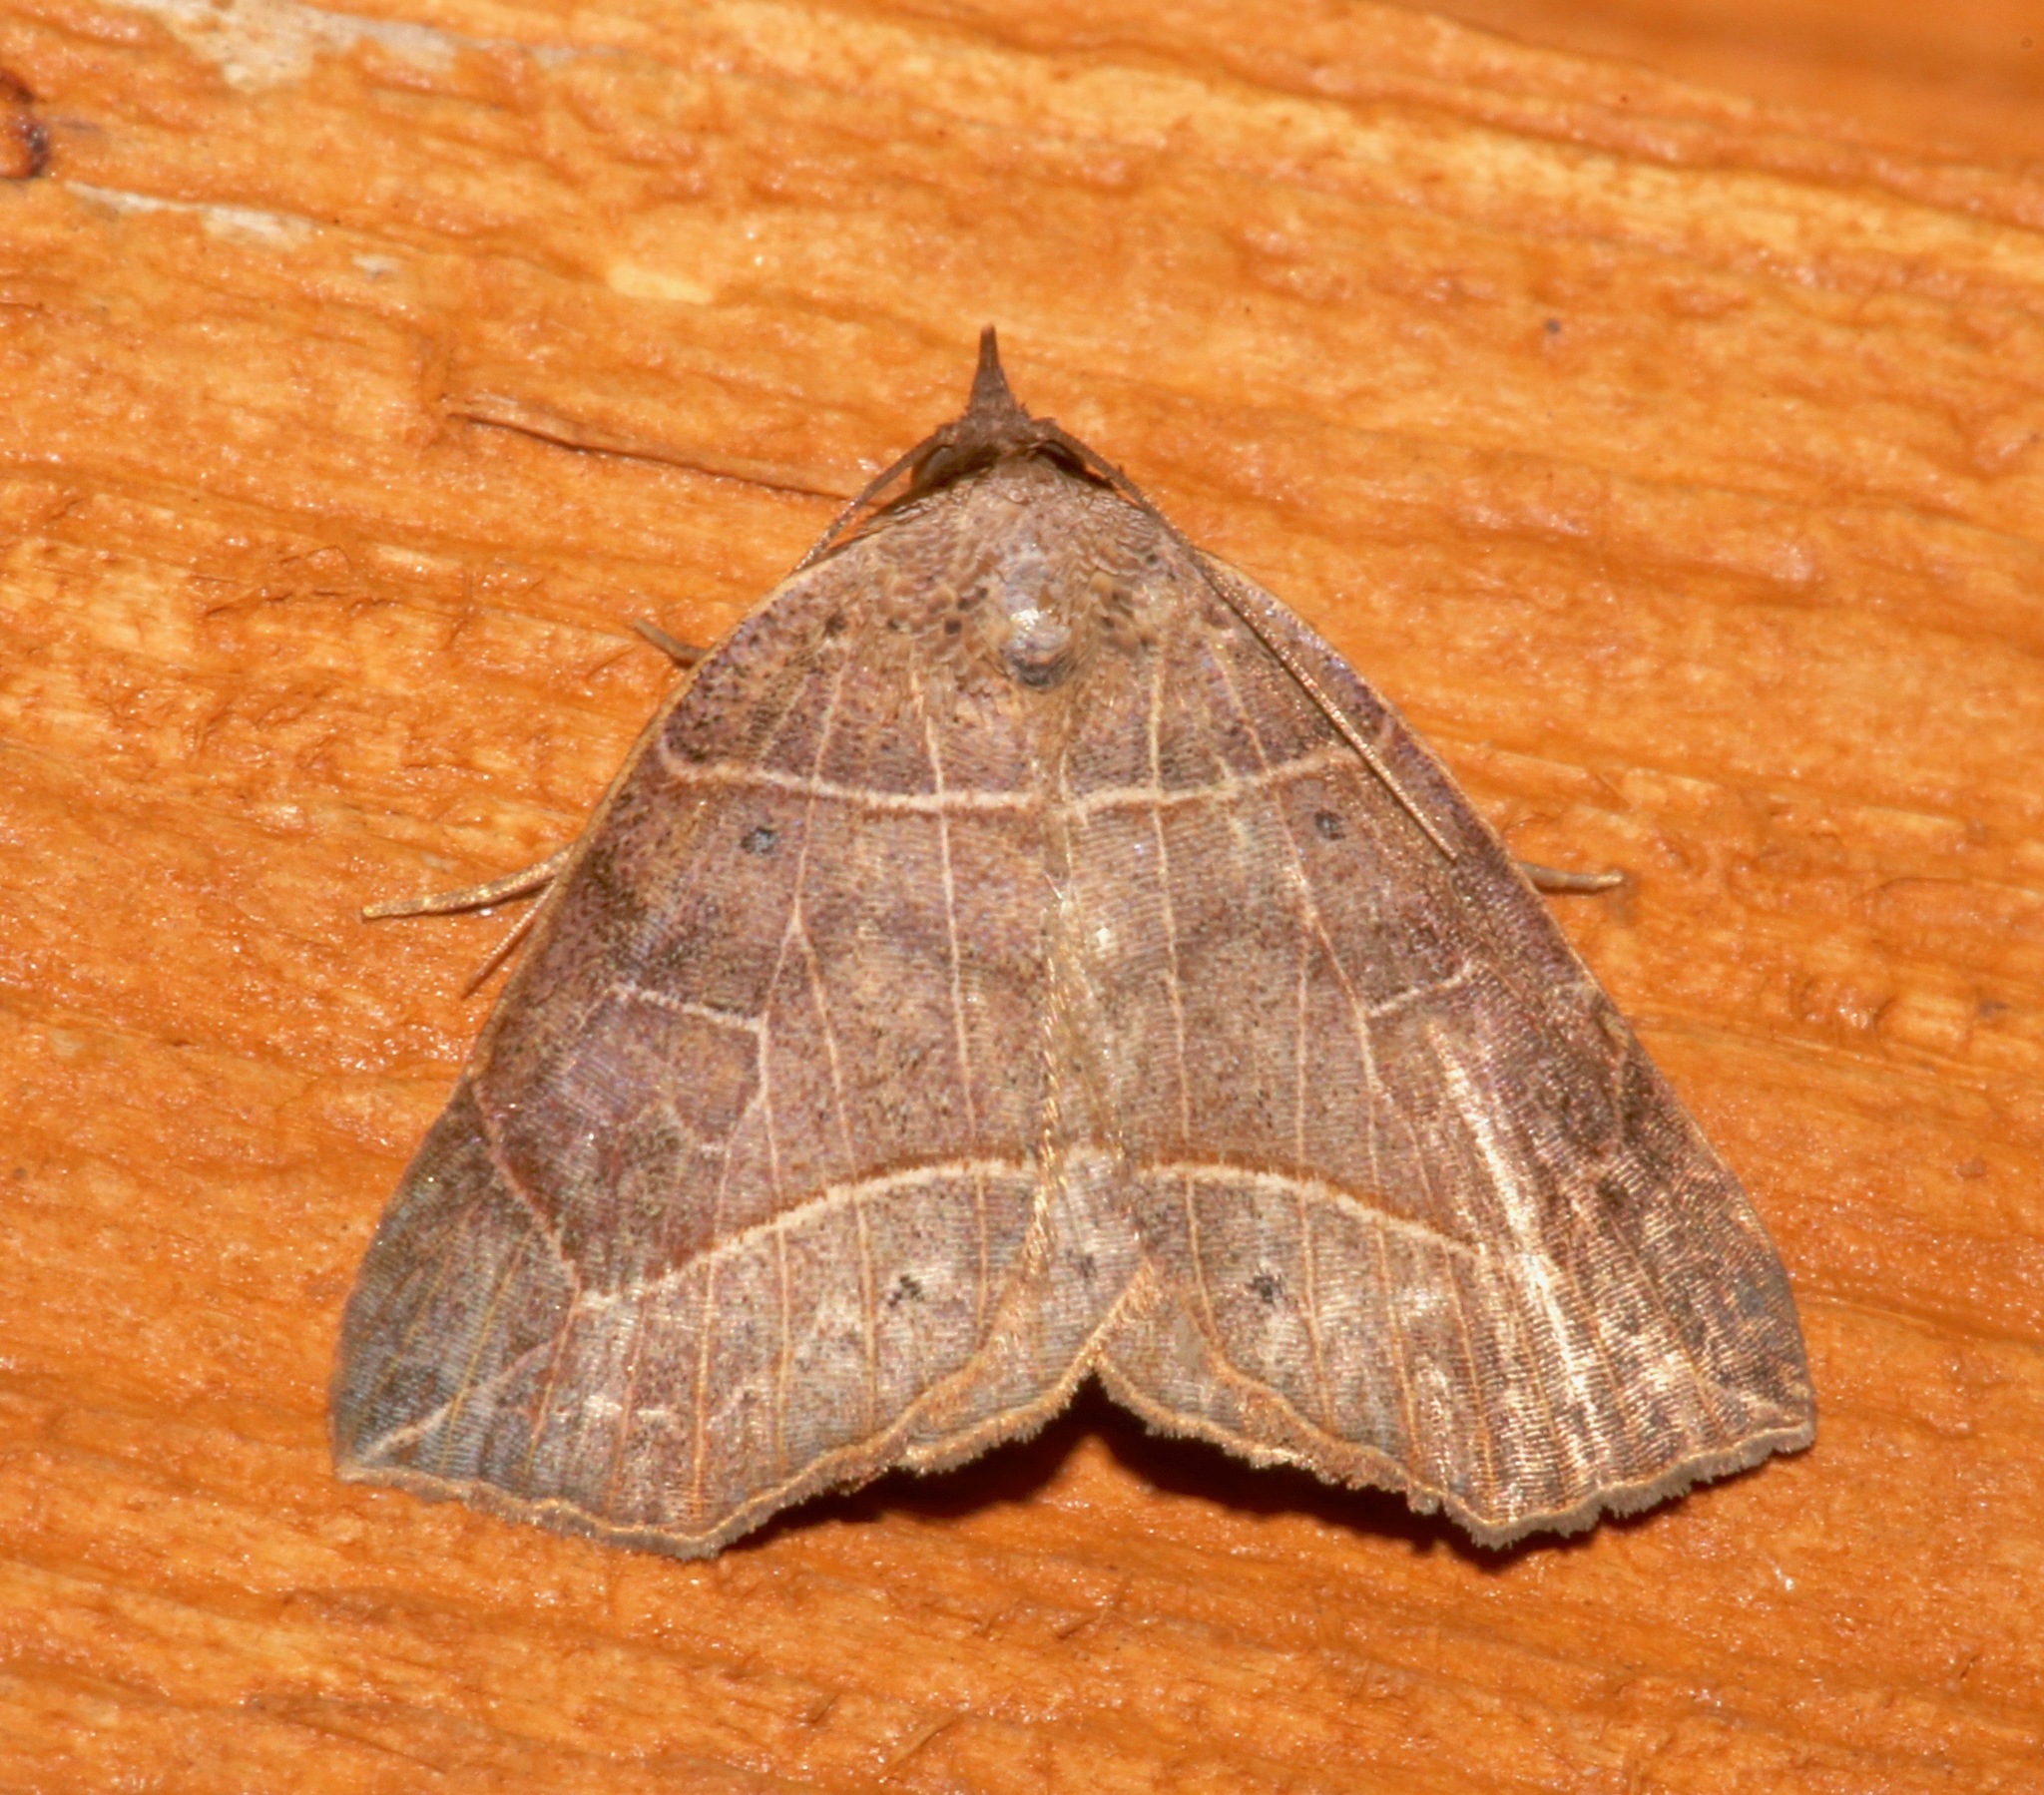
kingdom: Animalia
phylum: Arthropoda
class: Insecta
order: Lepidoptera
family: Erebidae
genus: Isogona
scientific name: Isogona tenuis
